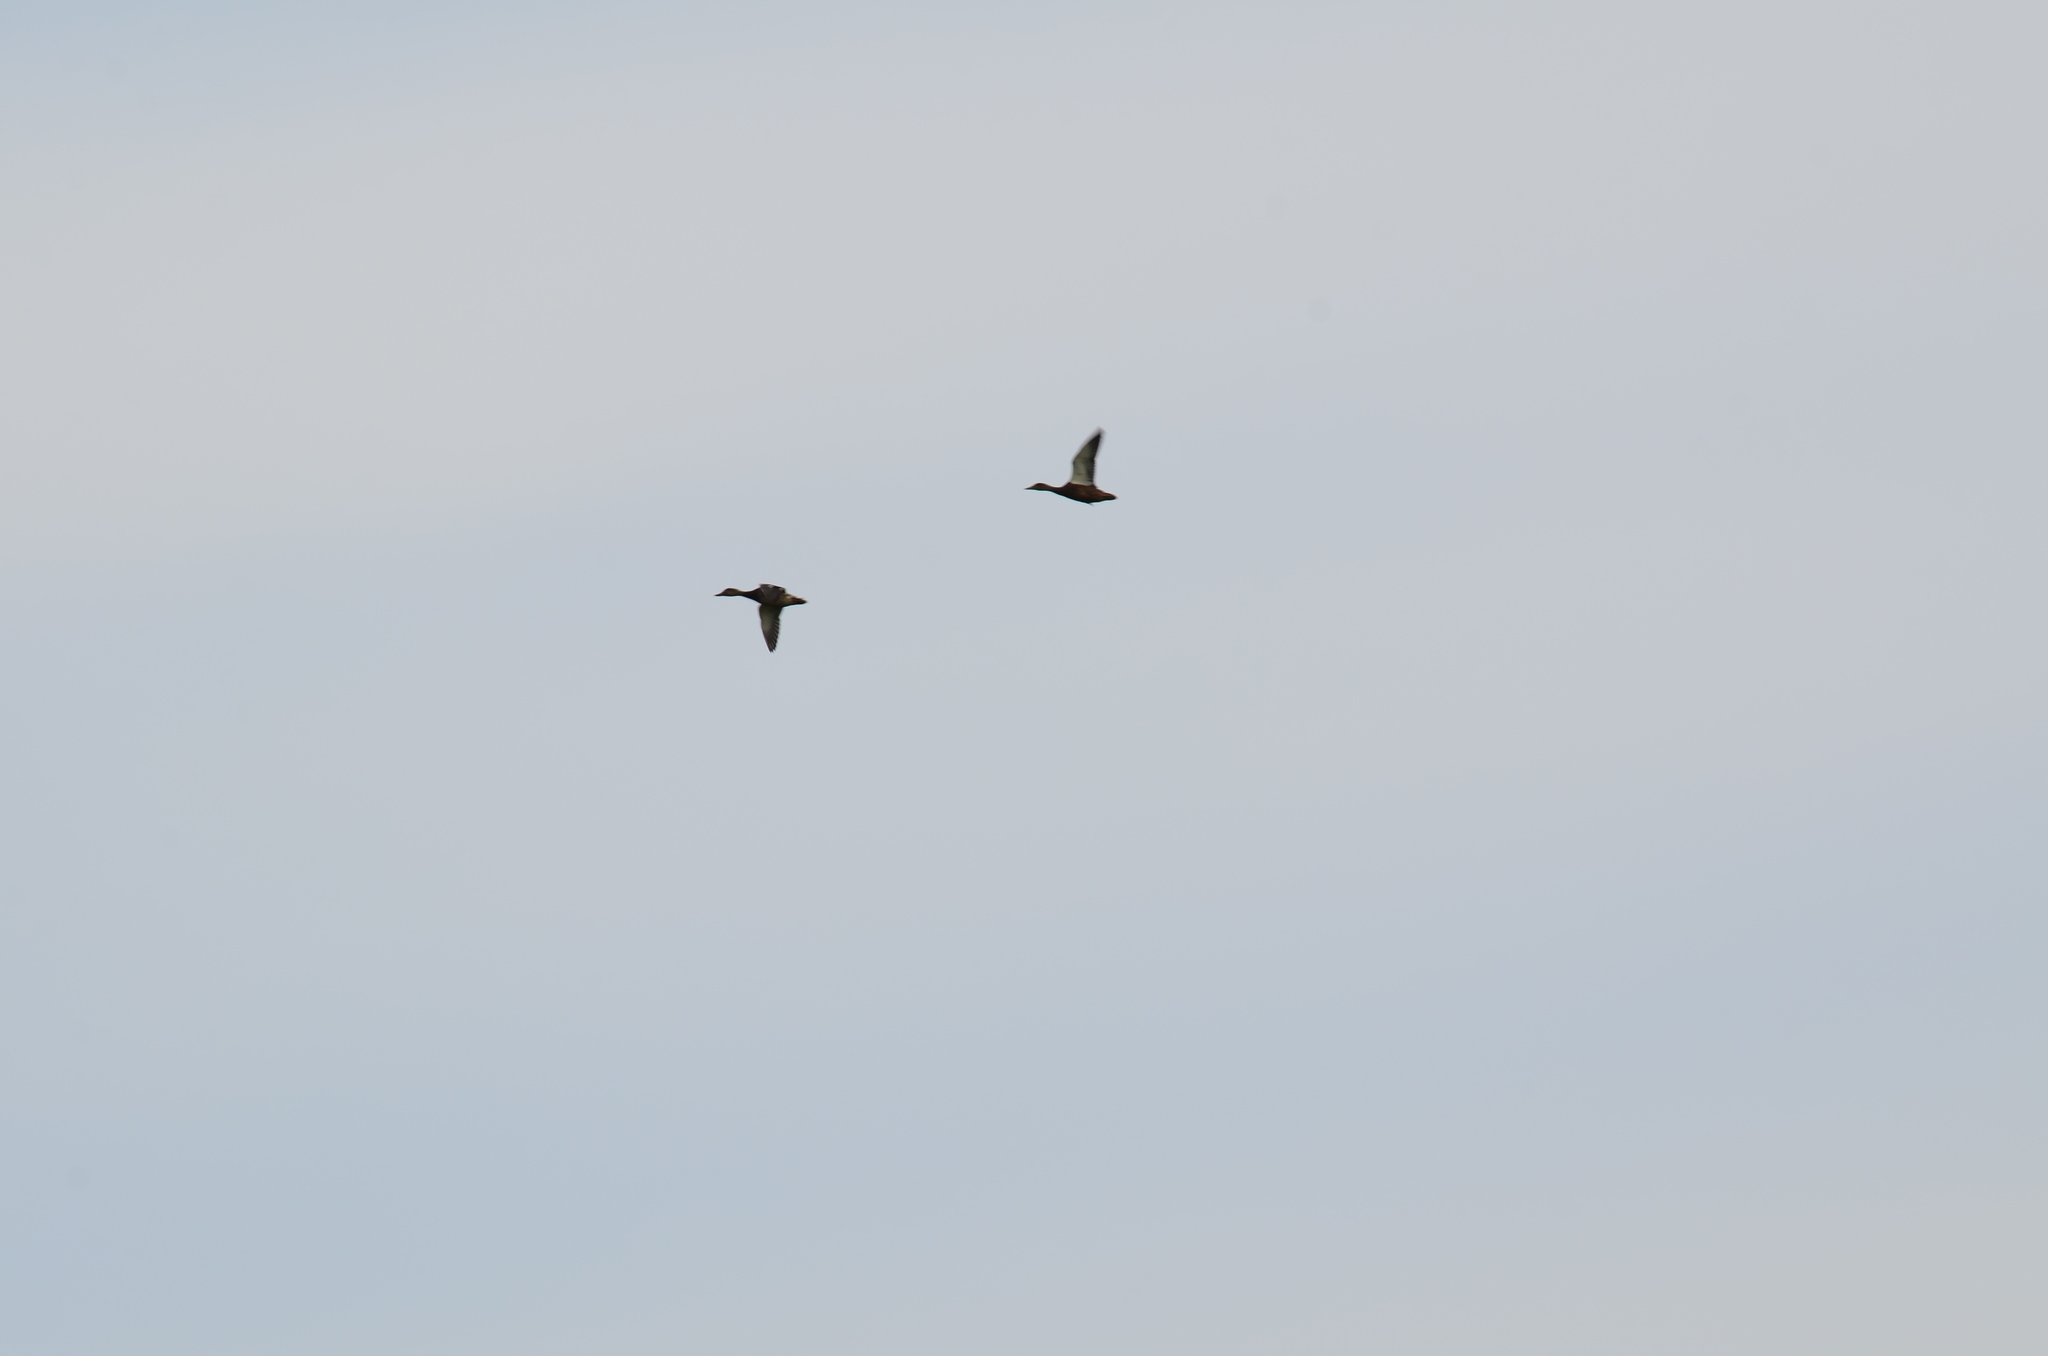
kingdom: Animalia
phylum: Chordata
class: Aves
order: Anseriformes
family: Anatidae
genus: Anas
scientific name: Anas platyrhynchos
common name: Mallard
